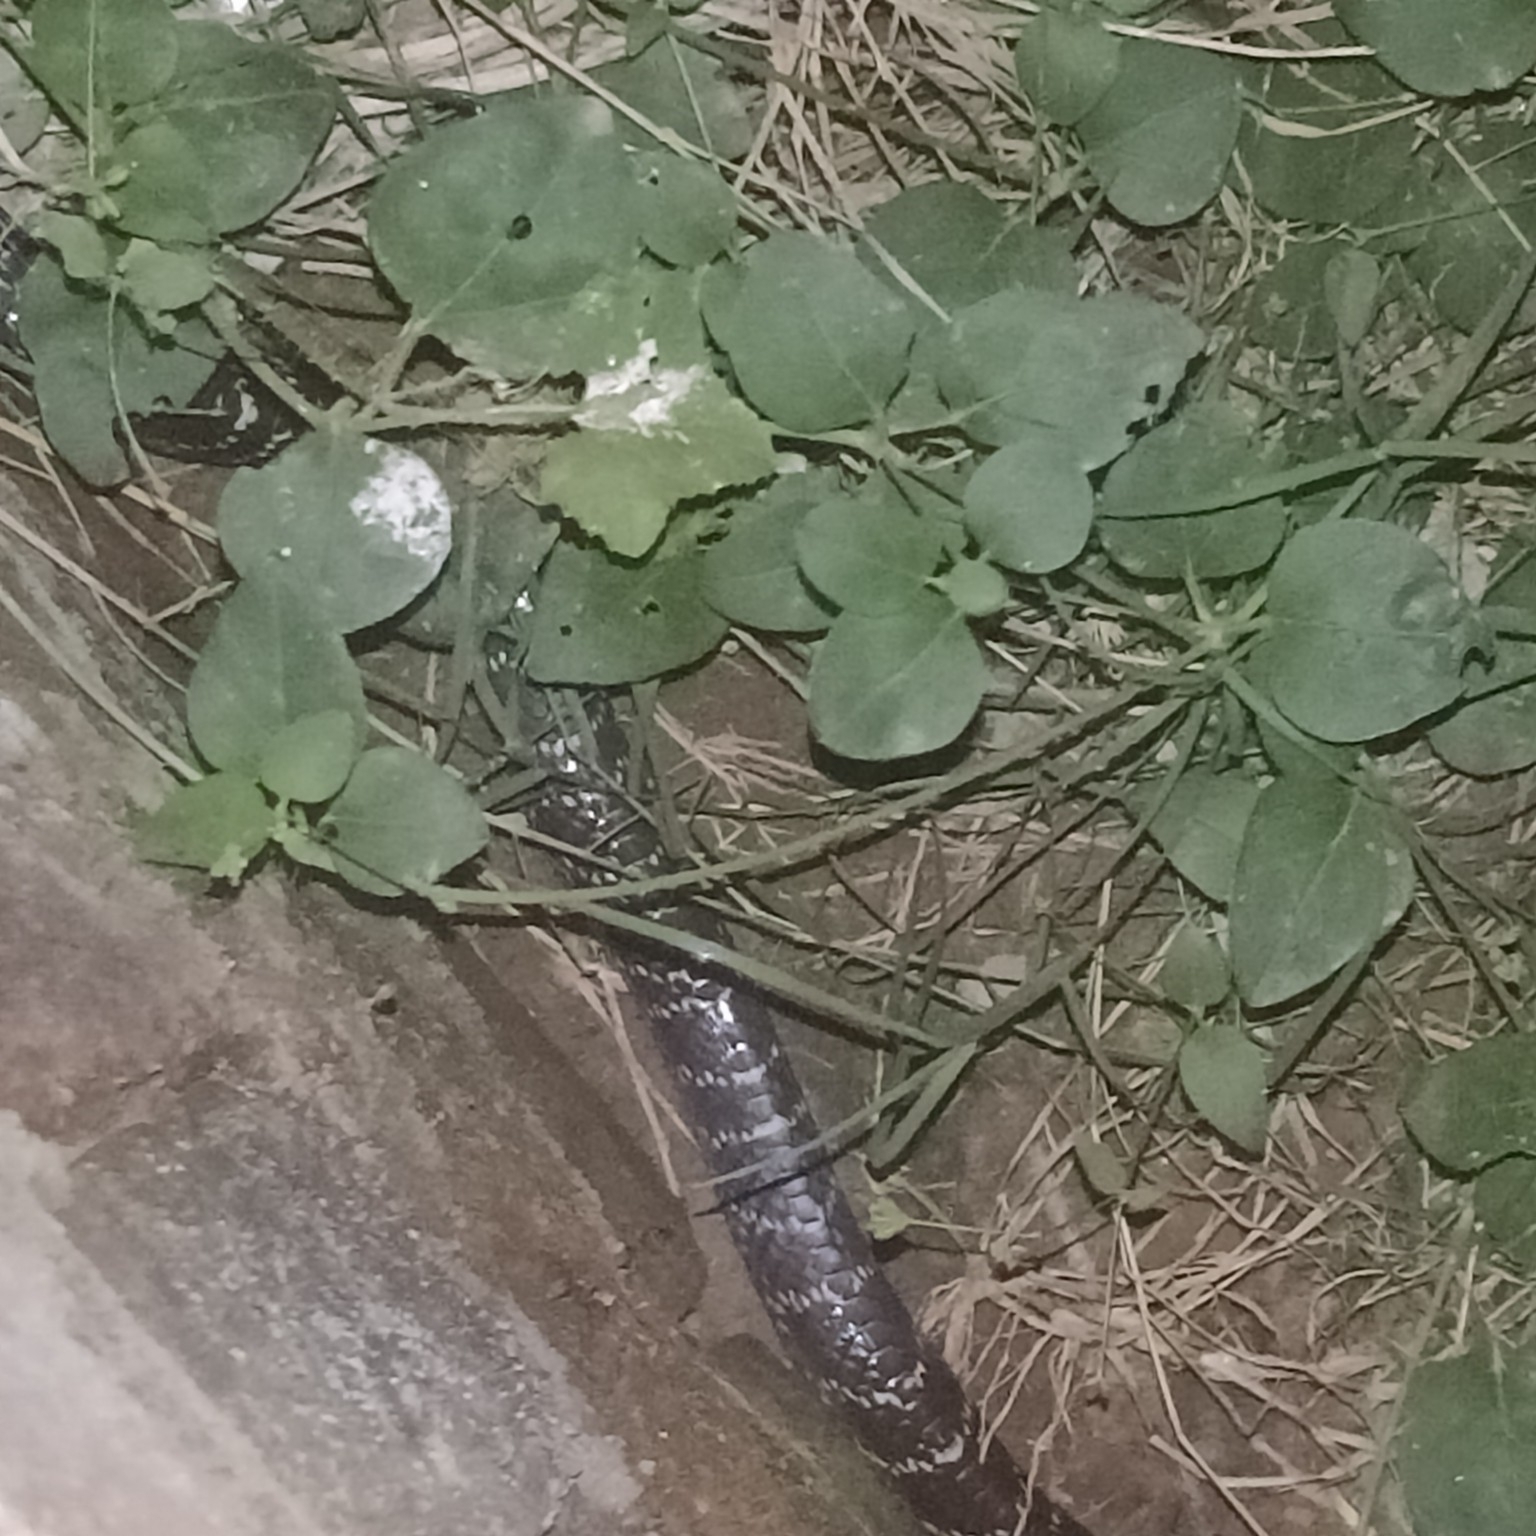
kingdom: Animalia
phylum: Chordata
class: Squamata
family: Elapidae
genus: Bungarus
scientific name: Bungarus caeruleus
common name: Common krait
